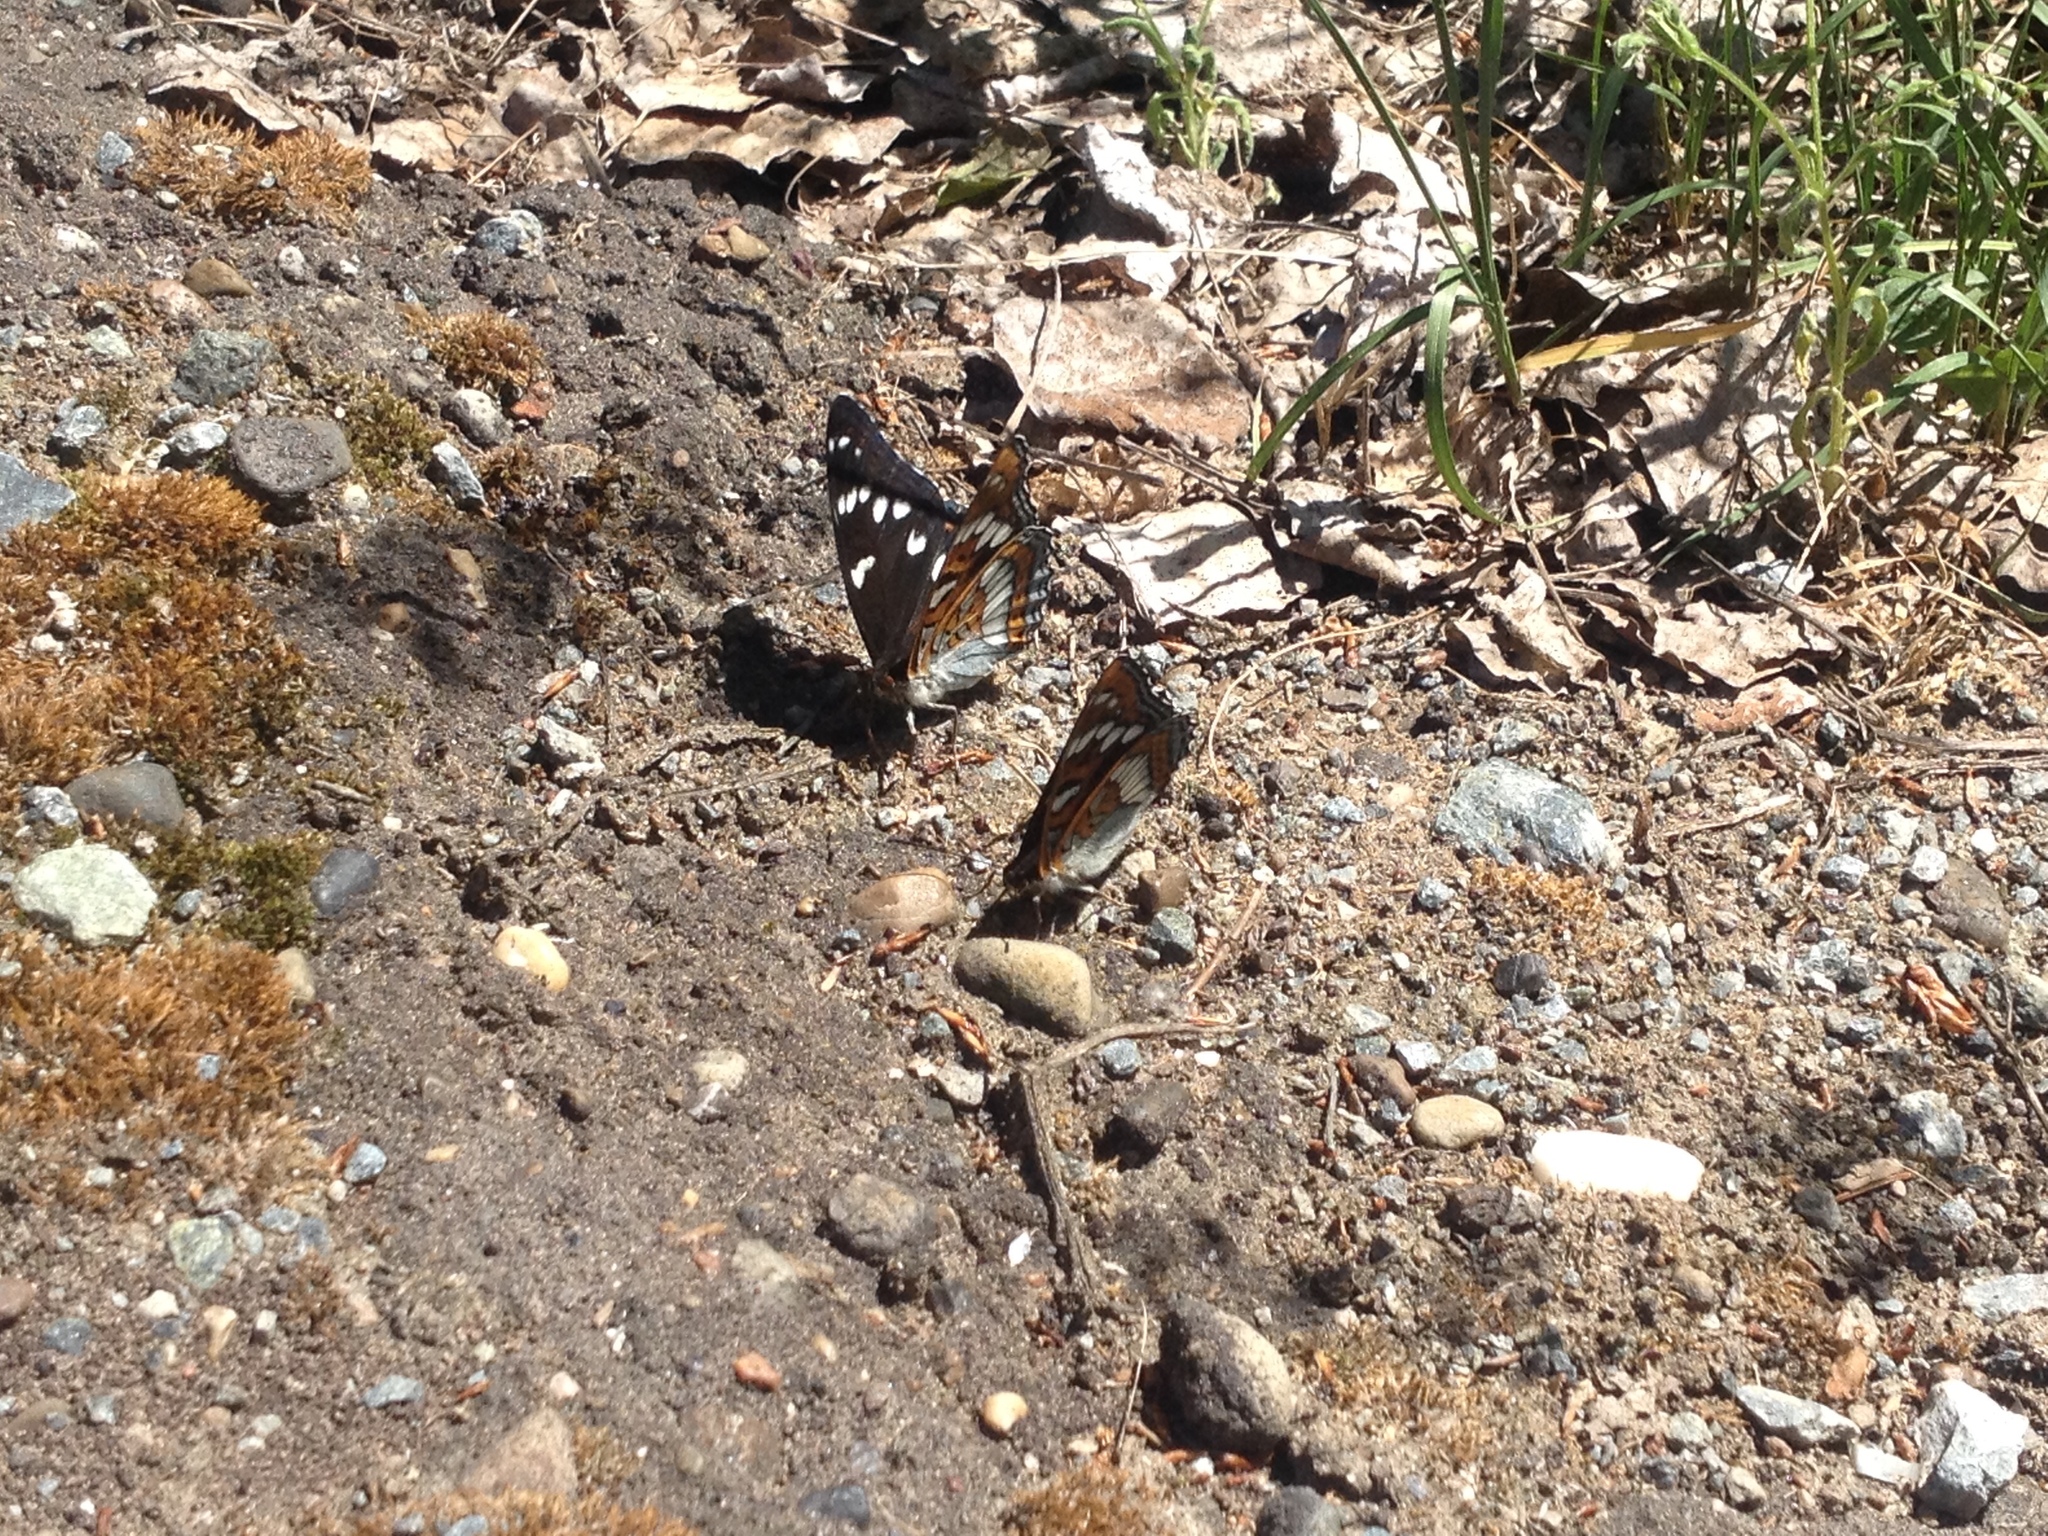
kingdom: Animalia
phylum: Arthropoda
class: Insecta
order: Lepidoptera
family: Nymphalidae
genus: Limenitis
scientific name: Limenitis populi
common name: Poplar admiral
